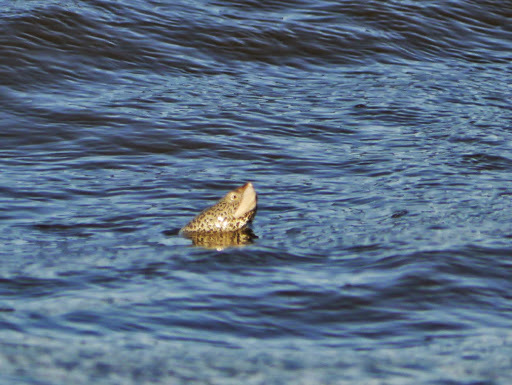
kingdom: Animalia
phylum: Chordata
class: Testudines
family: Emydidae
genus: Malaclemys
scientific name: Malaclemys terrapin
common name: Diamondback terrapin
